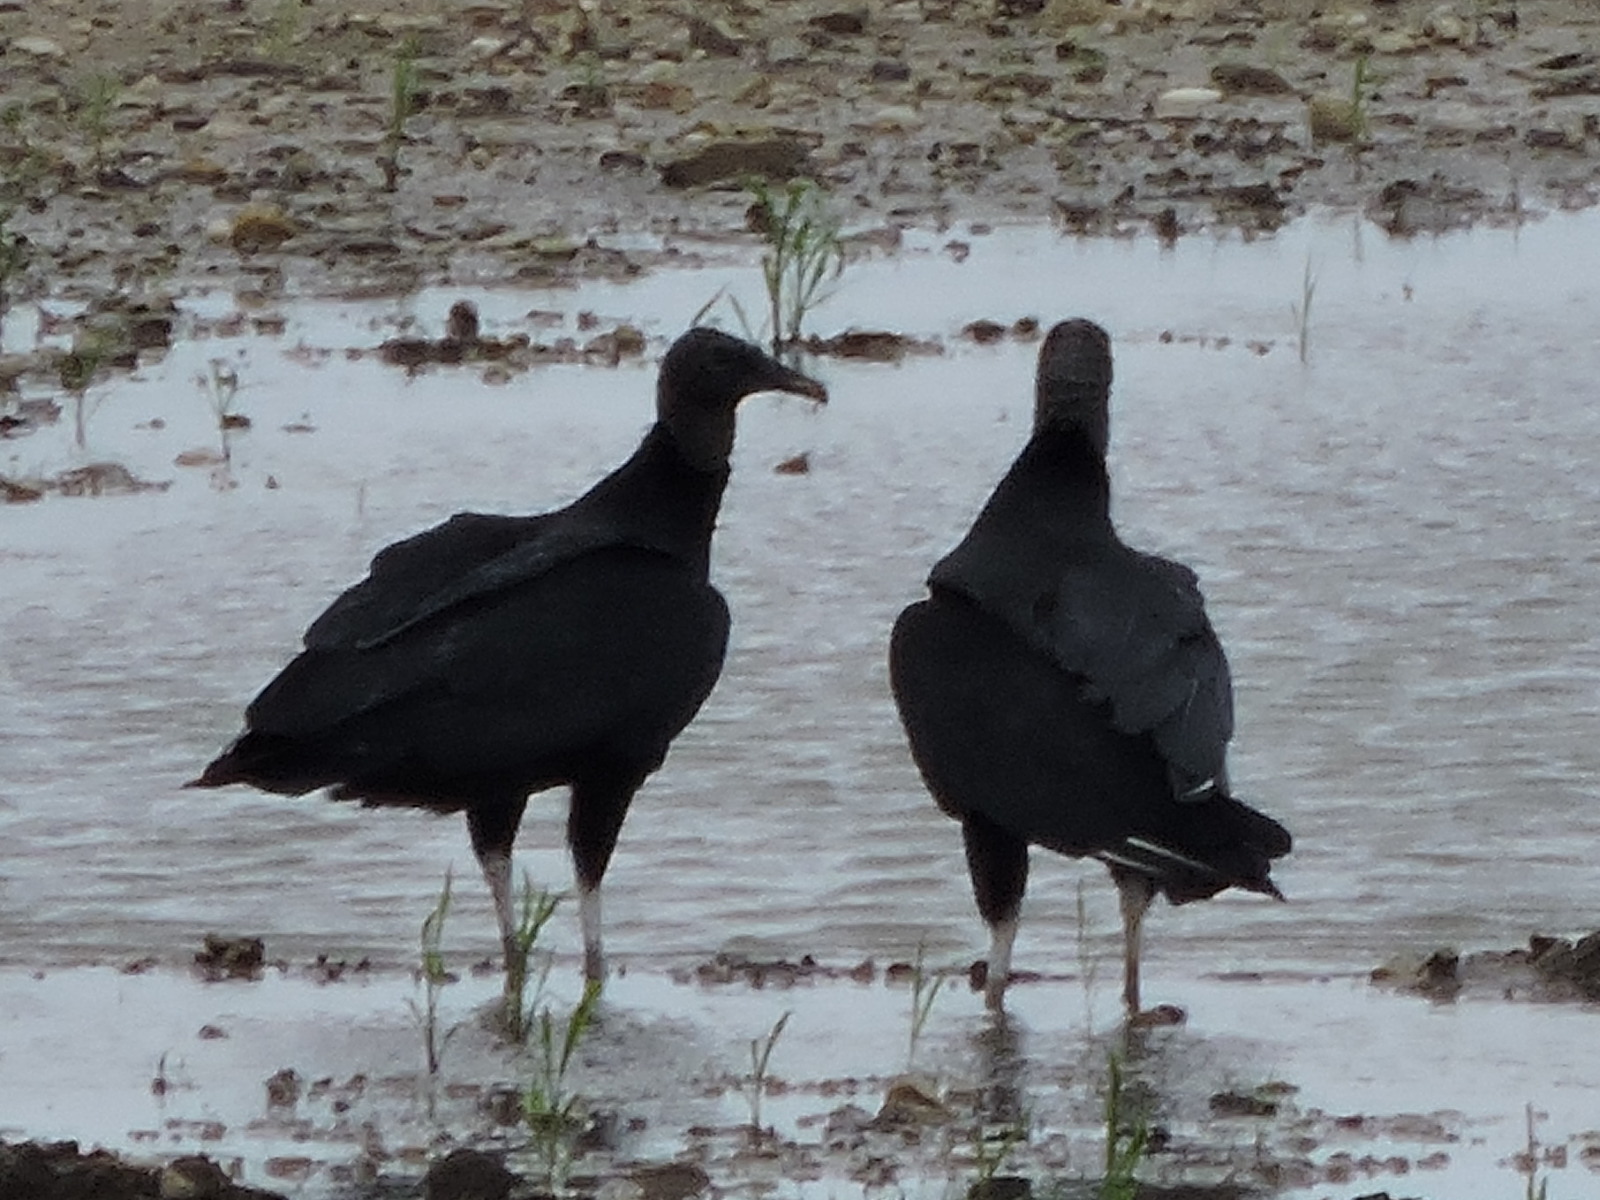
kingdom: Animalia
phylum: Chordata
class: Aves
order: Accipitriformes
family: Cathartidae
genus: Coragyps
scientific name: Coragyps atratus
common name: Black vulture
